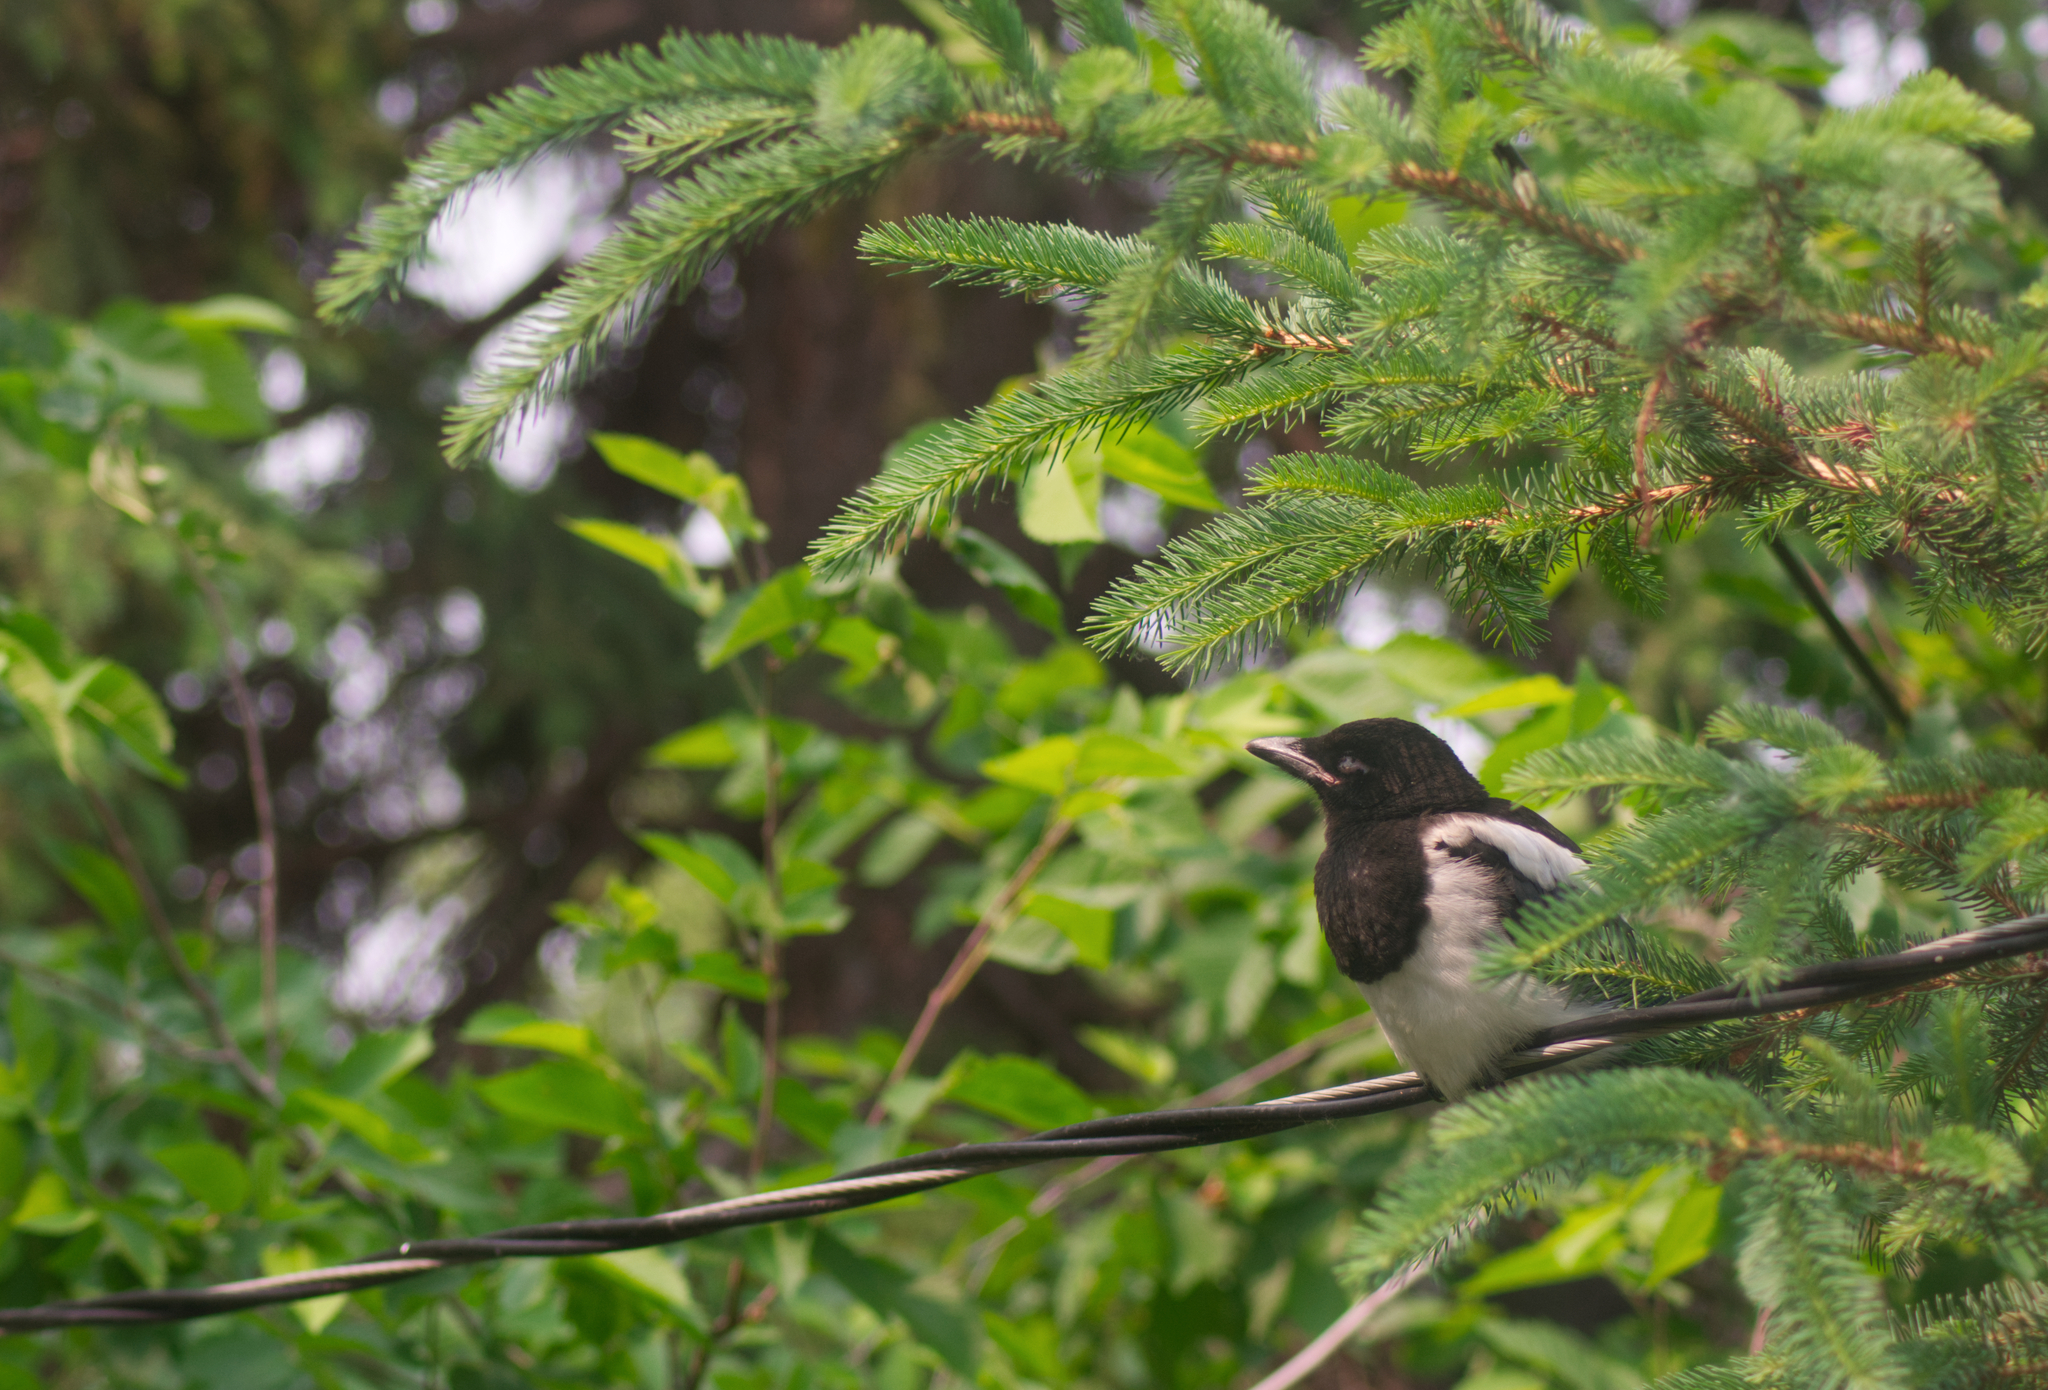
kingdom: Animalia
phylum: Chordata
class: Aves
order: Passeriformes
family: Corvidae
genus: Pica
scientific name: Pica hudsonia
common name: Black-billed magpie
